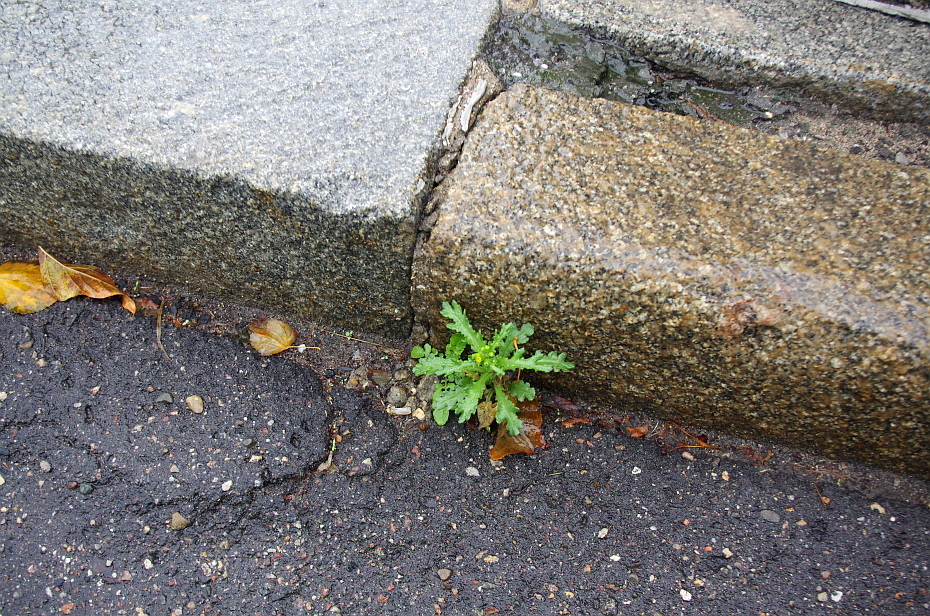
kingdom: Plantae
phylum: Tracheophyta
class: Magnoliopsida
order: Asterales
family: Asteraceae
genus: Senecio
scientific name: Senecio vulgaris
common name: Old-man-in-the-spring
